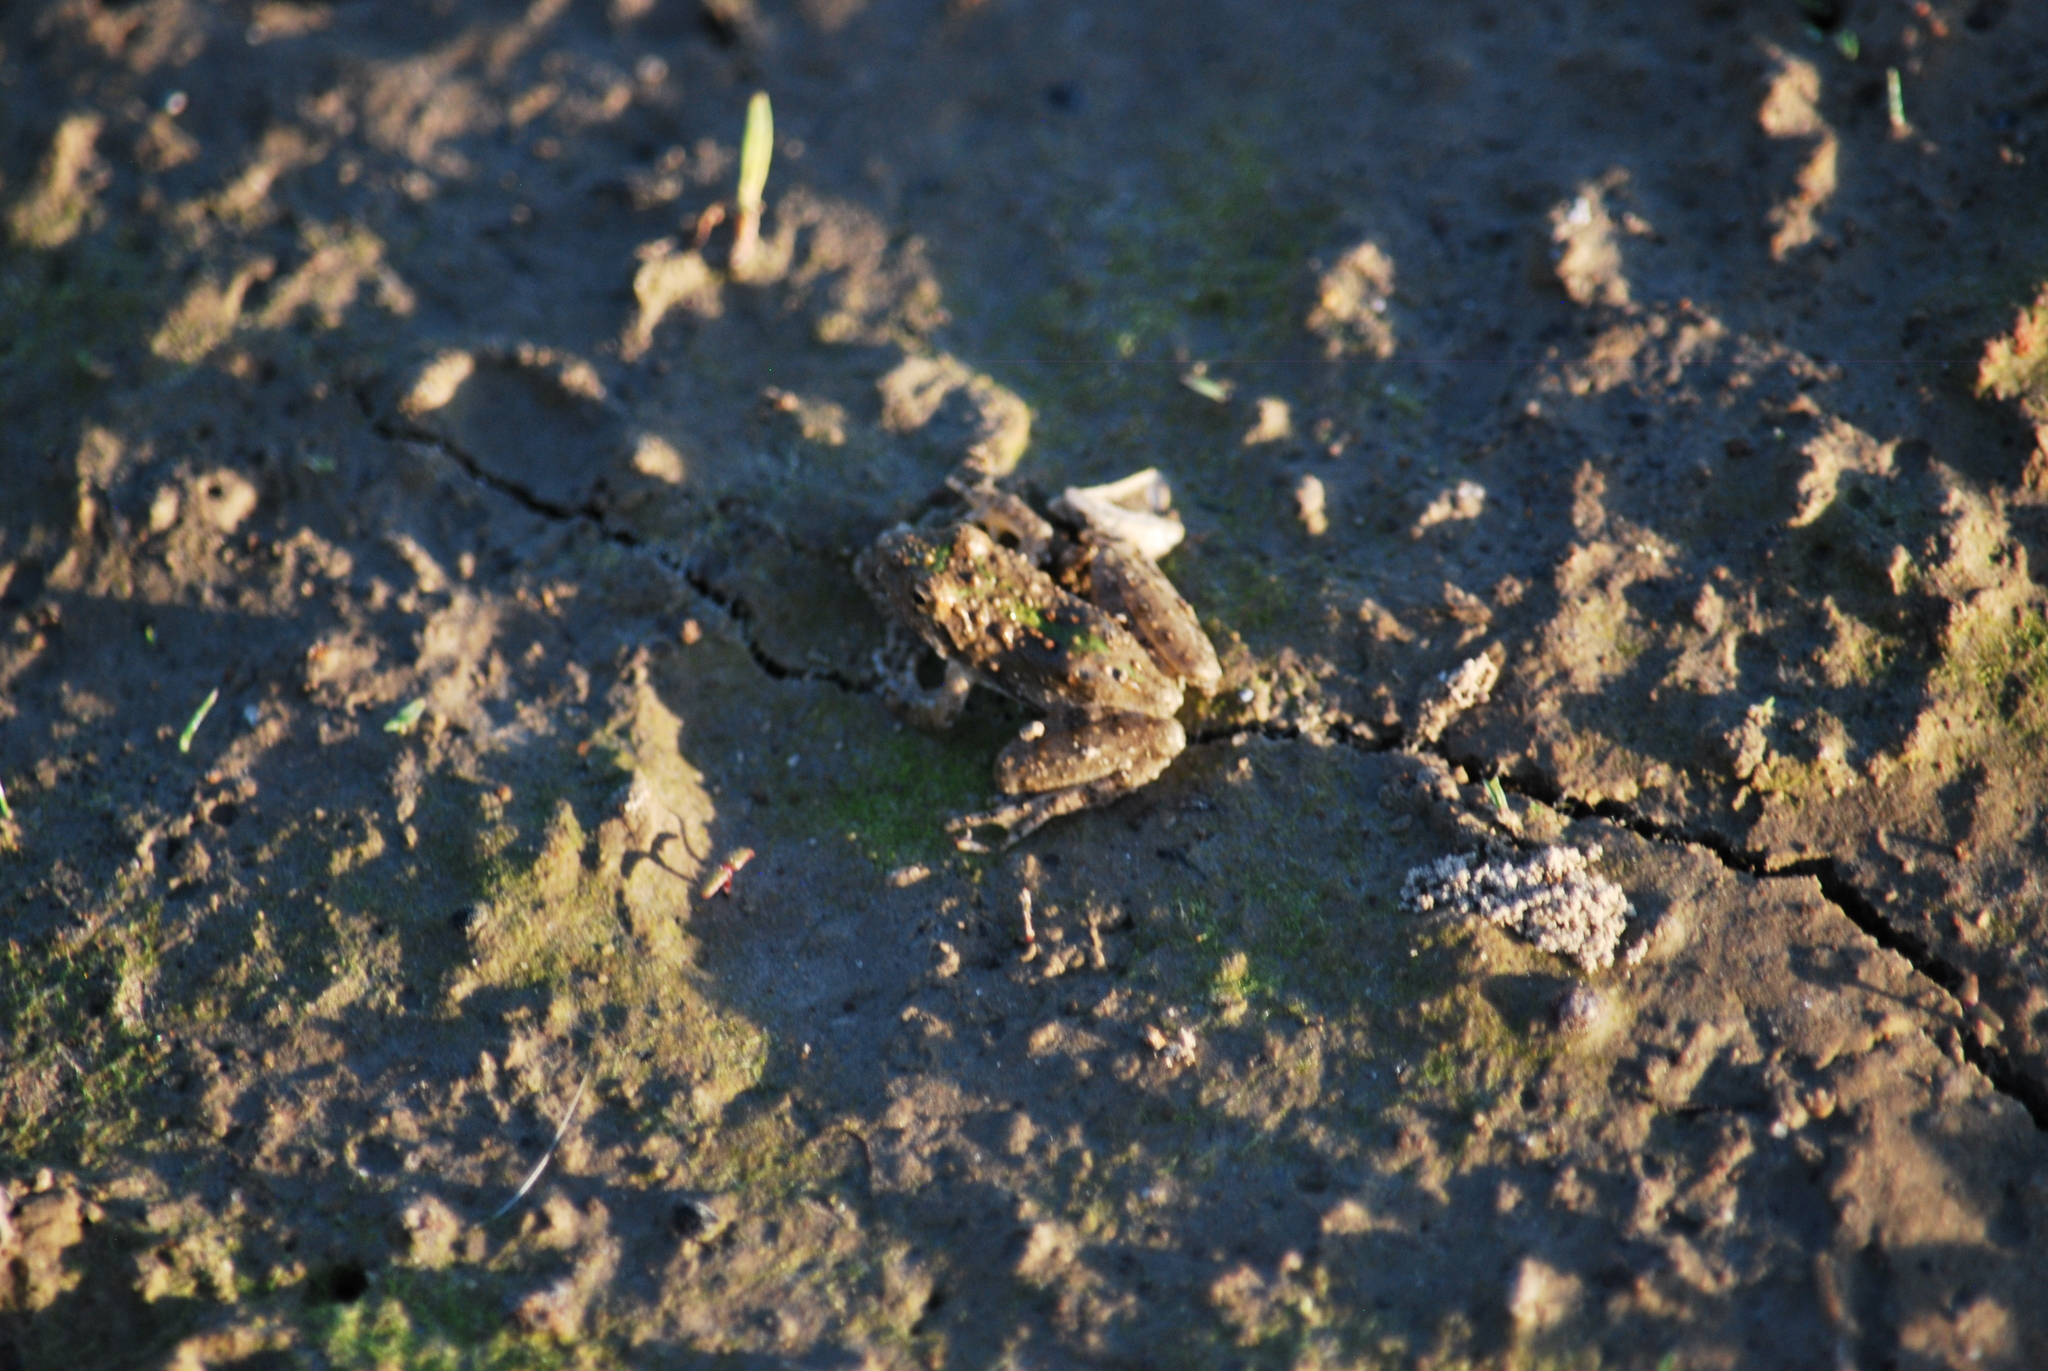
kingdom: Animalia
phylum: Chordata
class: Amphibia
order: Anura
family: Hylidae
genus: Acris
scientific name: Acris blanchardi
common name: Blanchard's cricket frog
